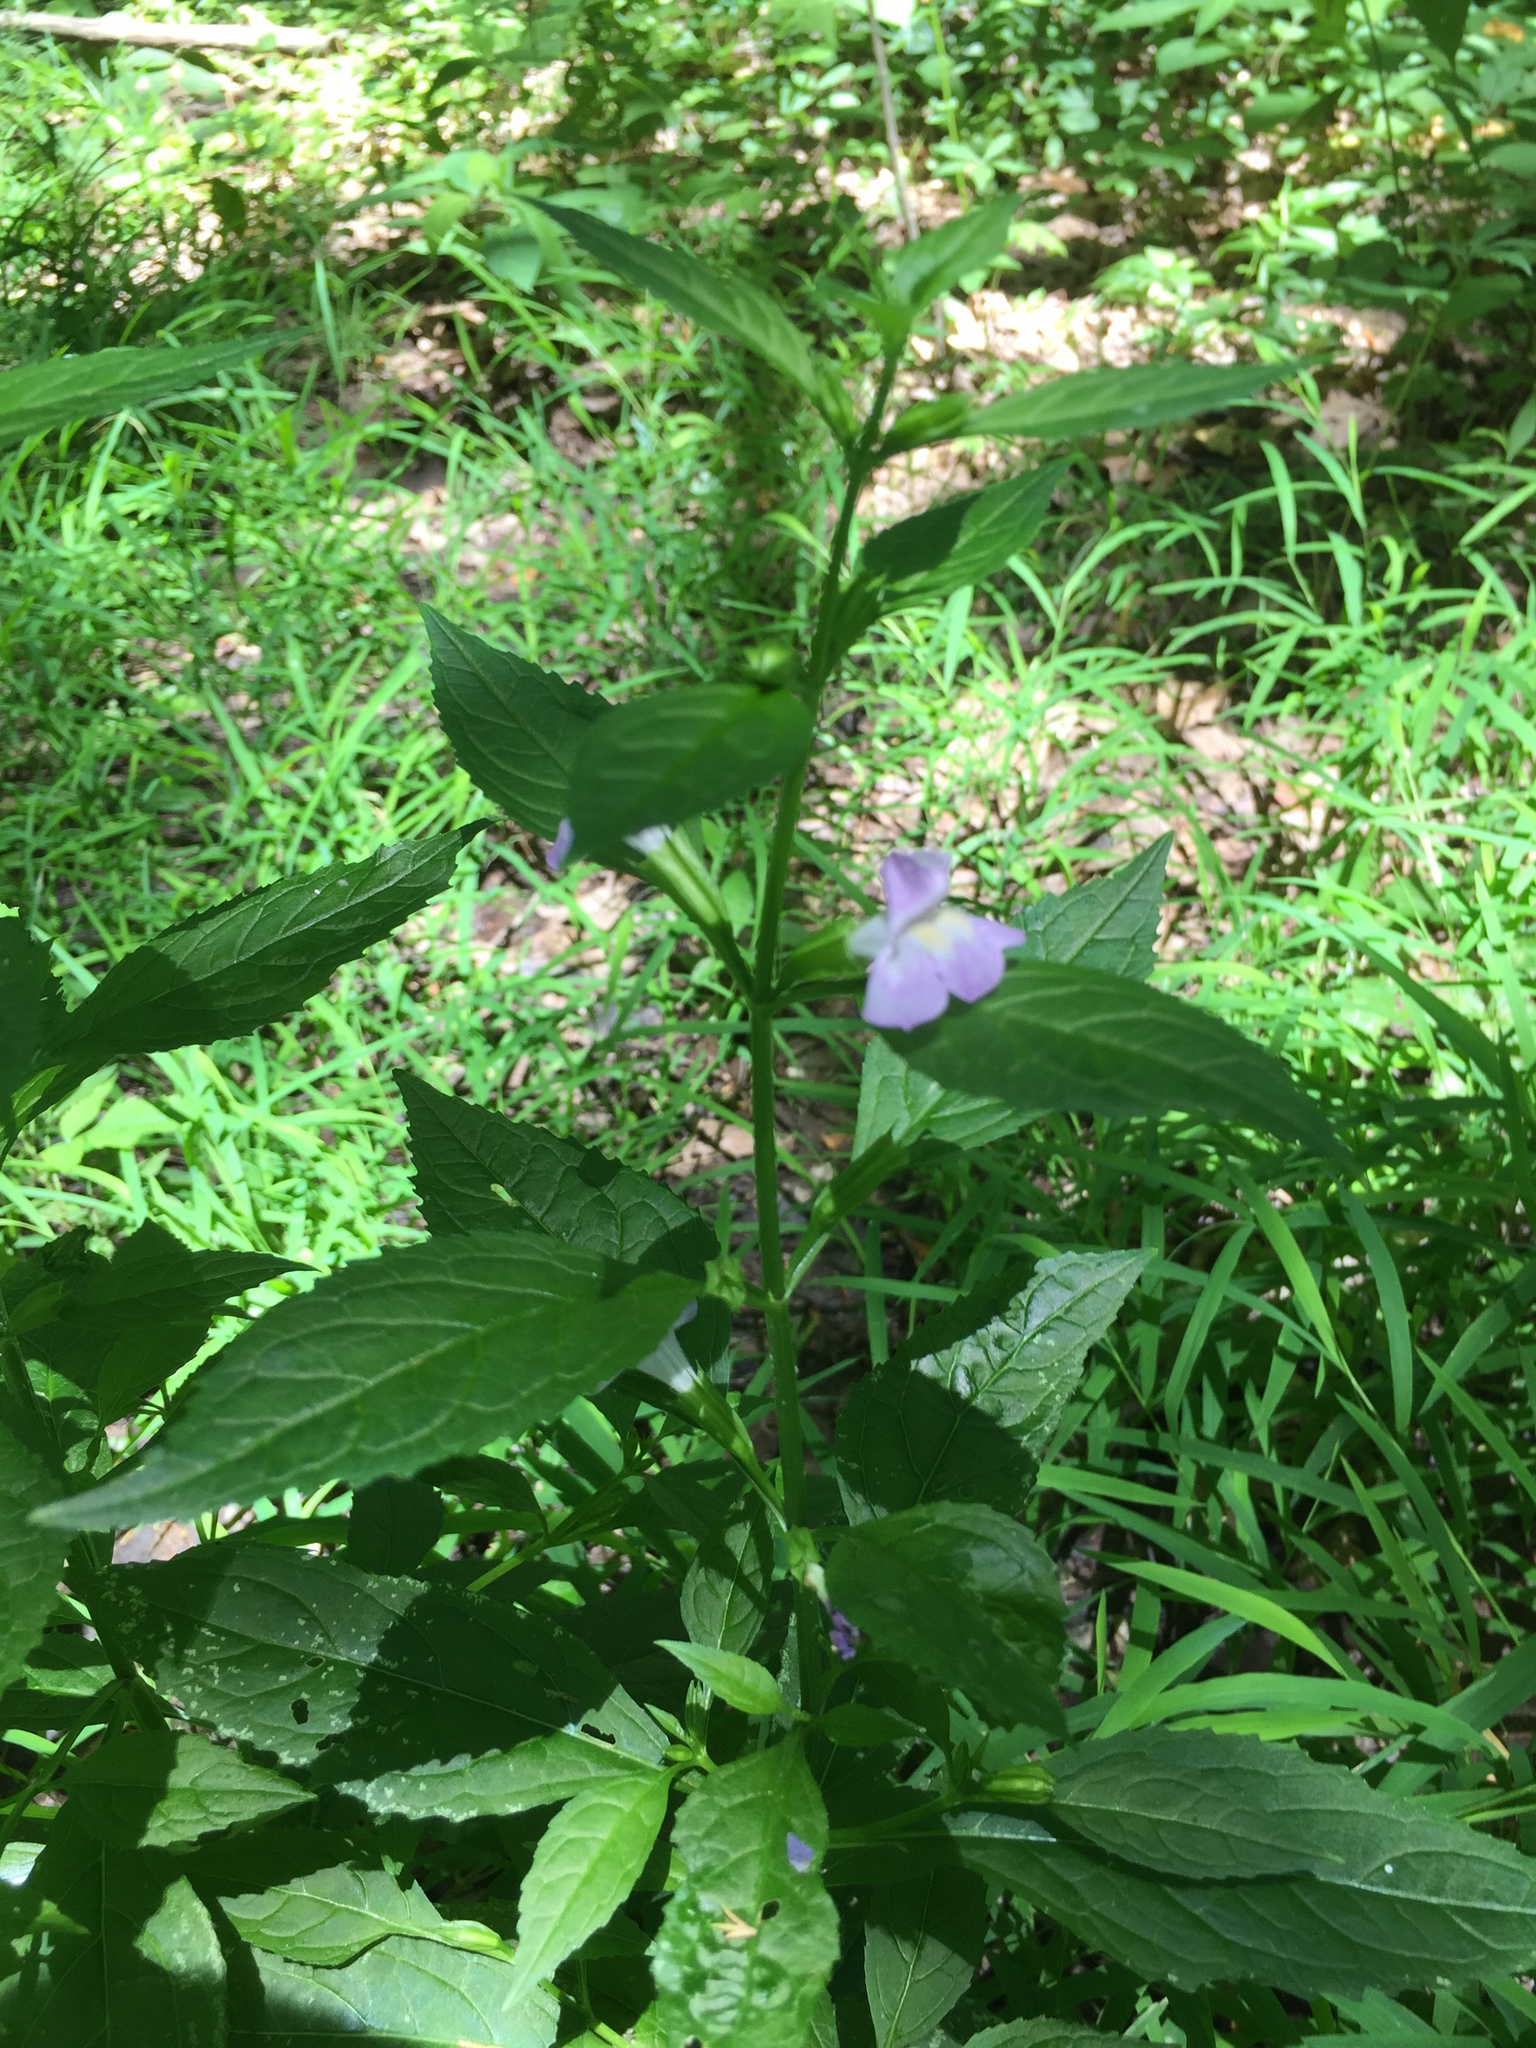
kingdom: Plantae
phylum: Tracheophyta
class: Magnoliopsida
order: Lamiales
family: Phrymaceae
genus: Mimulus
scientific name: Mimulus alatus
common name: Sharp-wing monkey-flower
